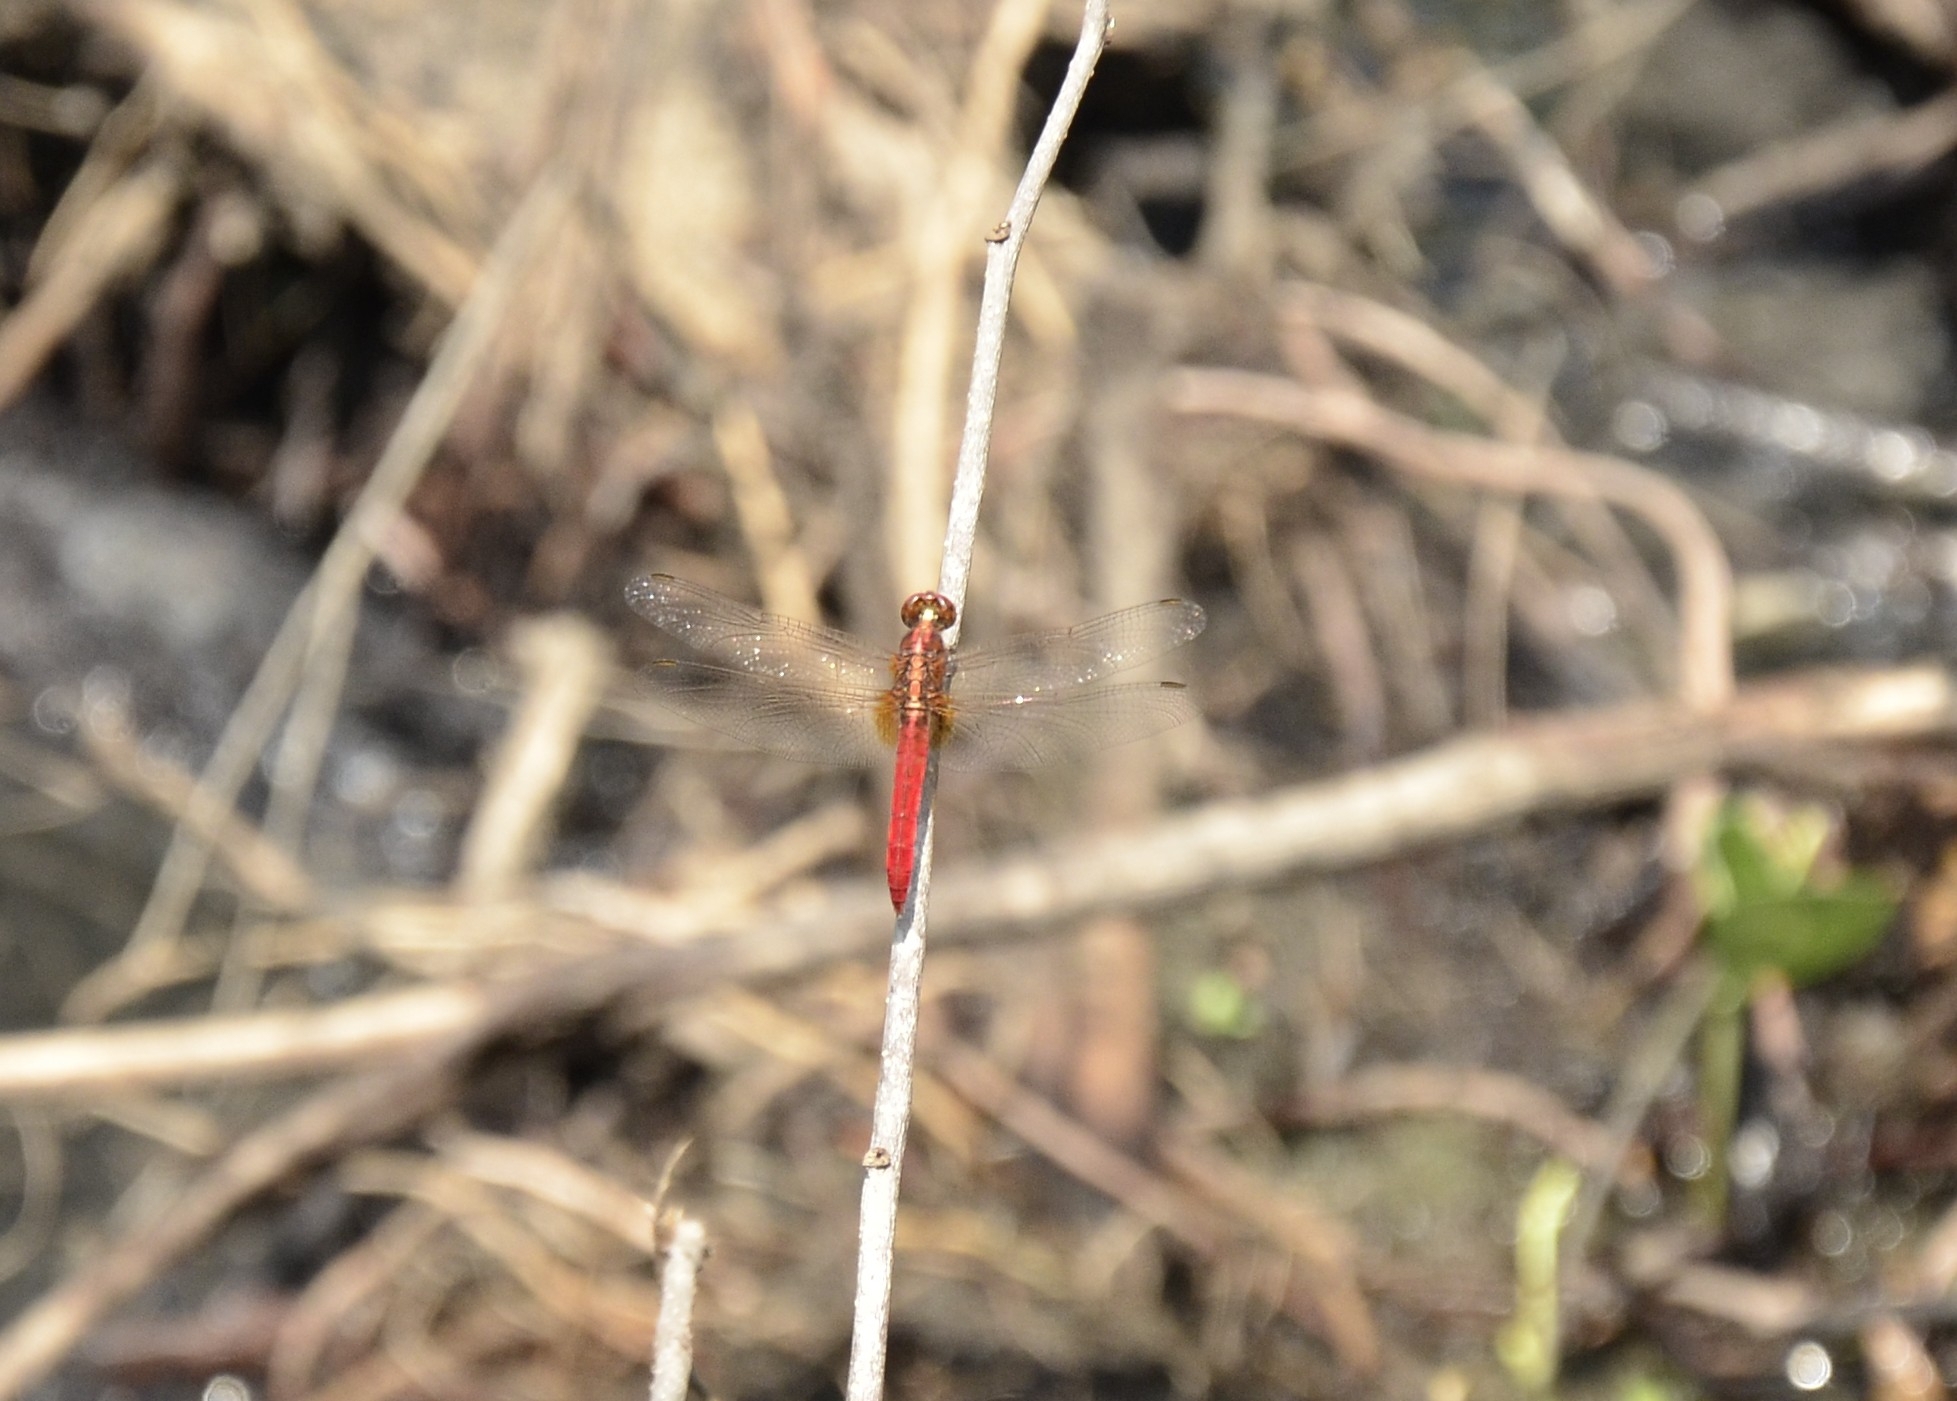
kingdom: Animalia
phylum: Arthropoda
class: Insecta
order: Odonata
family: Libellulidae
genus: Rhodothemis
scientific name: Rhodothemis rufa
